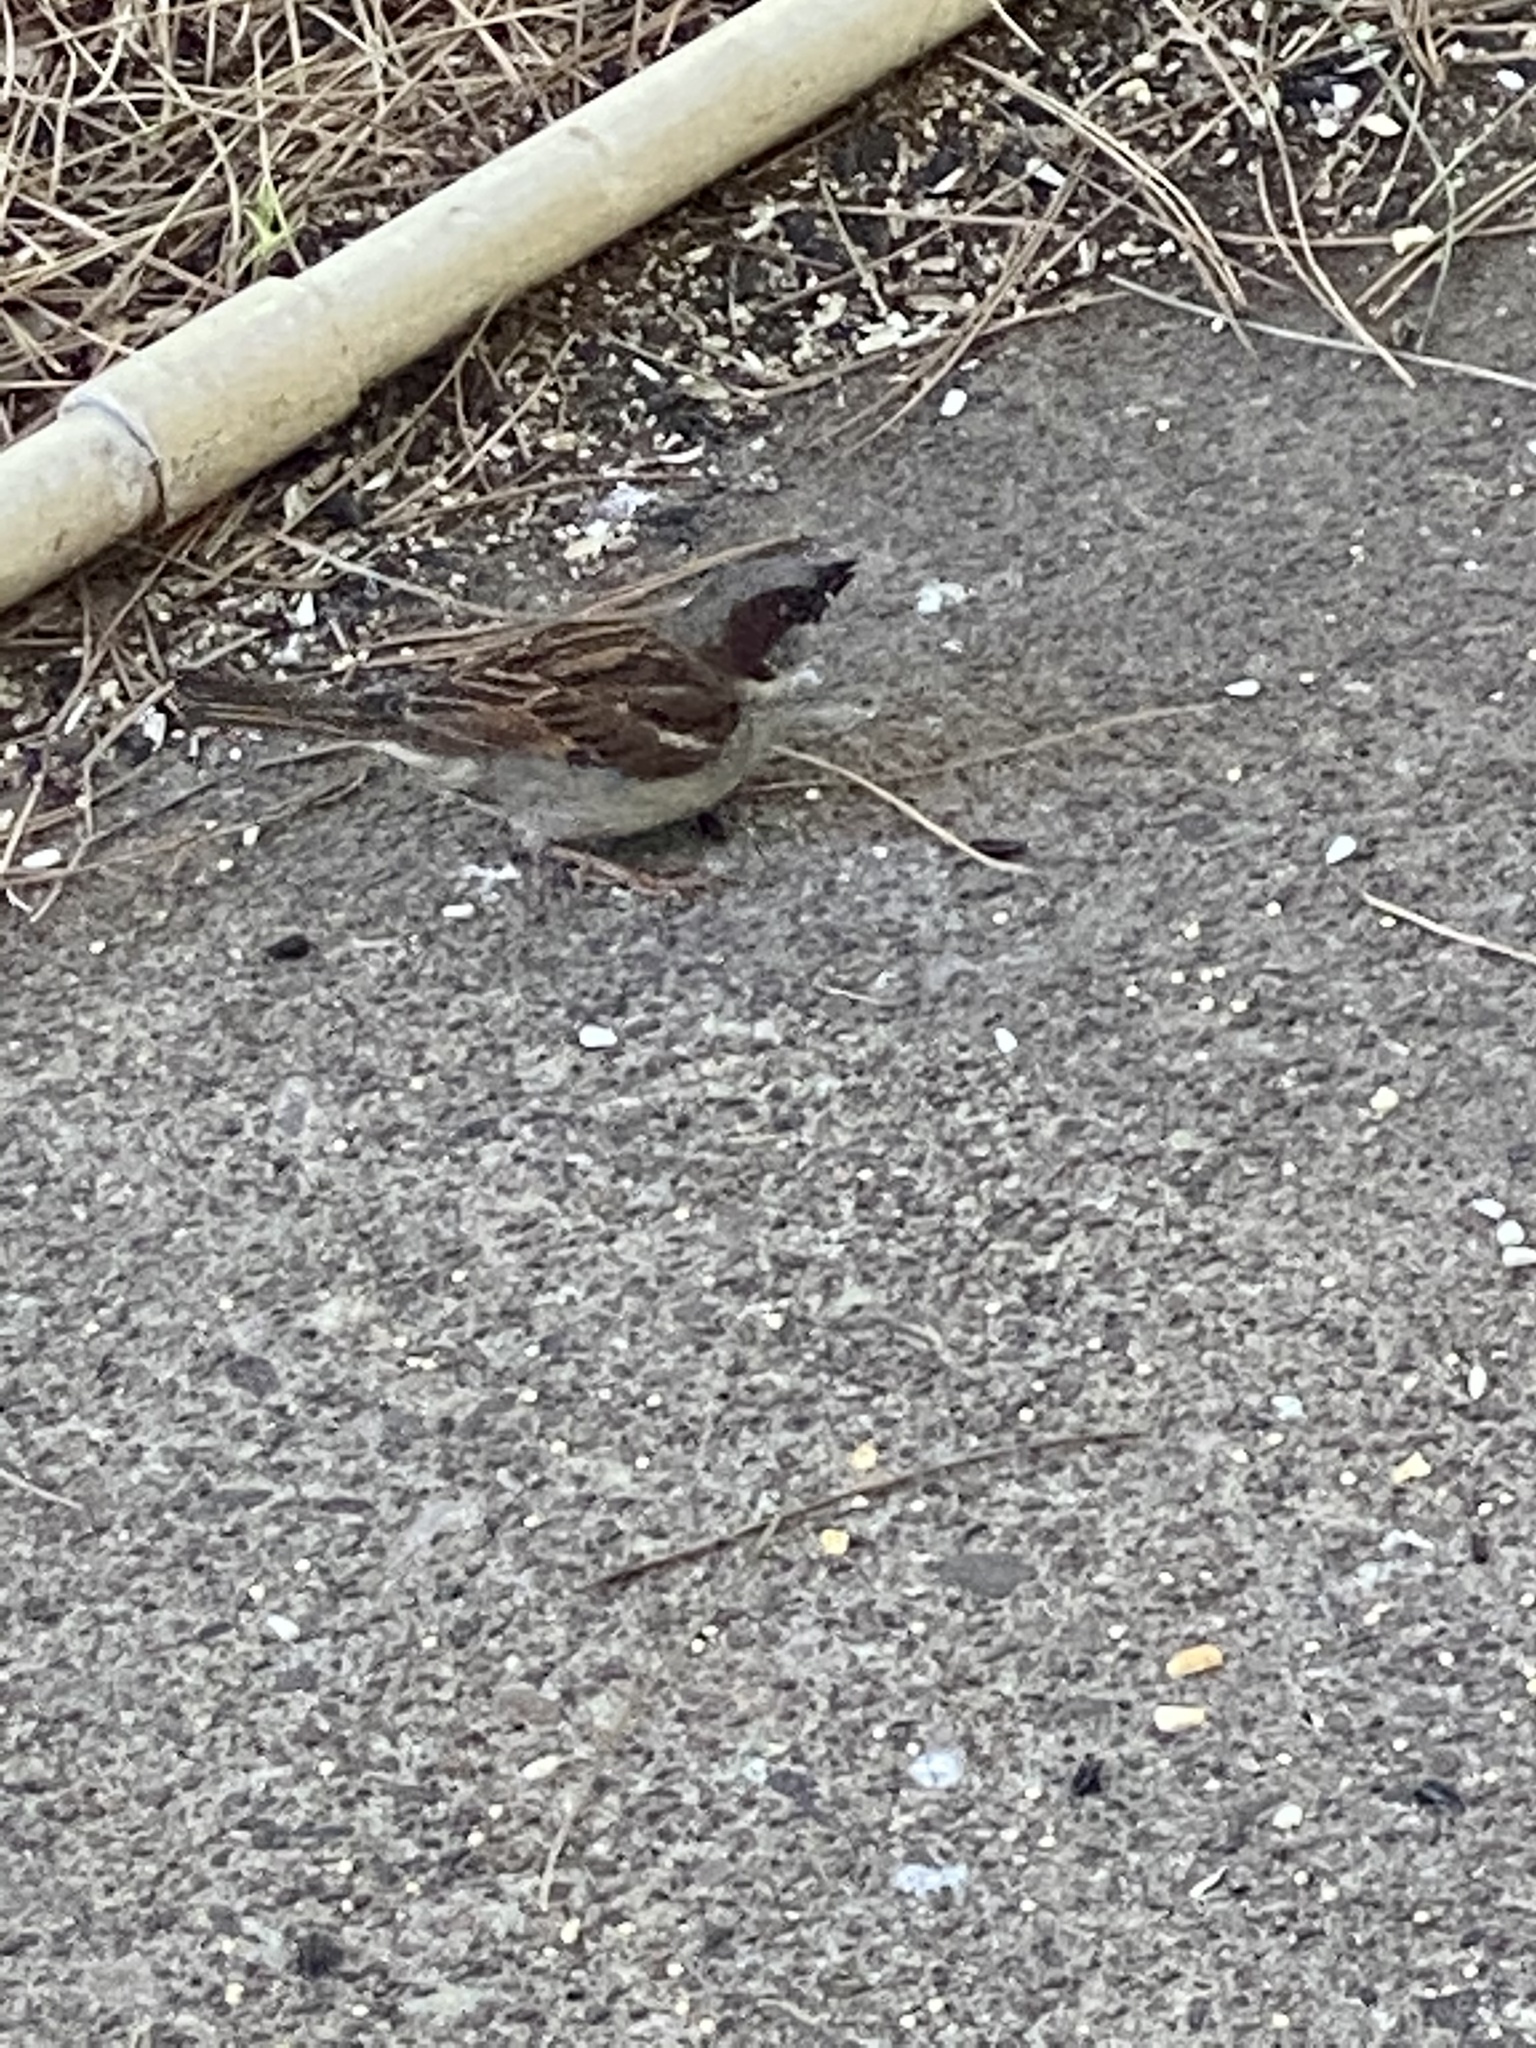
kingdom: Animalia
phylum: Chordata
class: Aves
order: Passeriformes
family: Passeridae
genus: Passer
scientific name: Passer domesticus
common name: House sparrow
